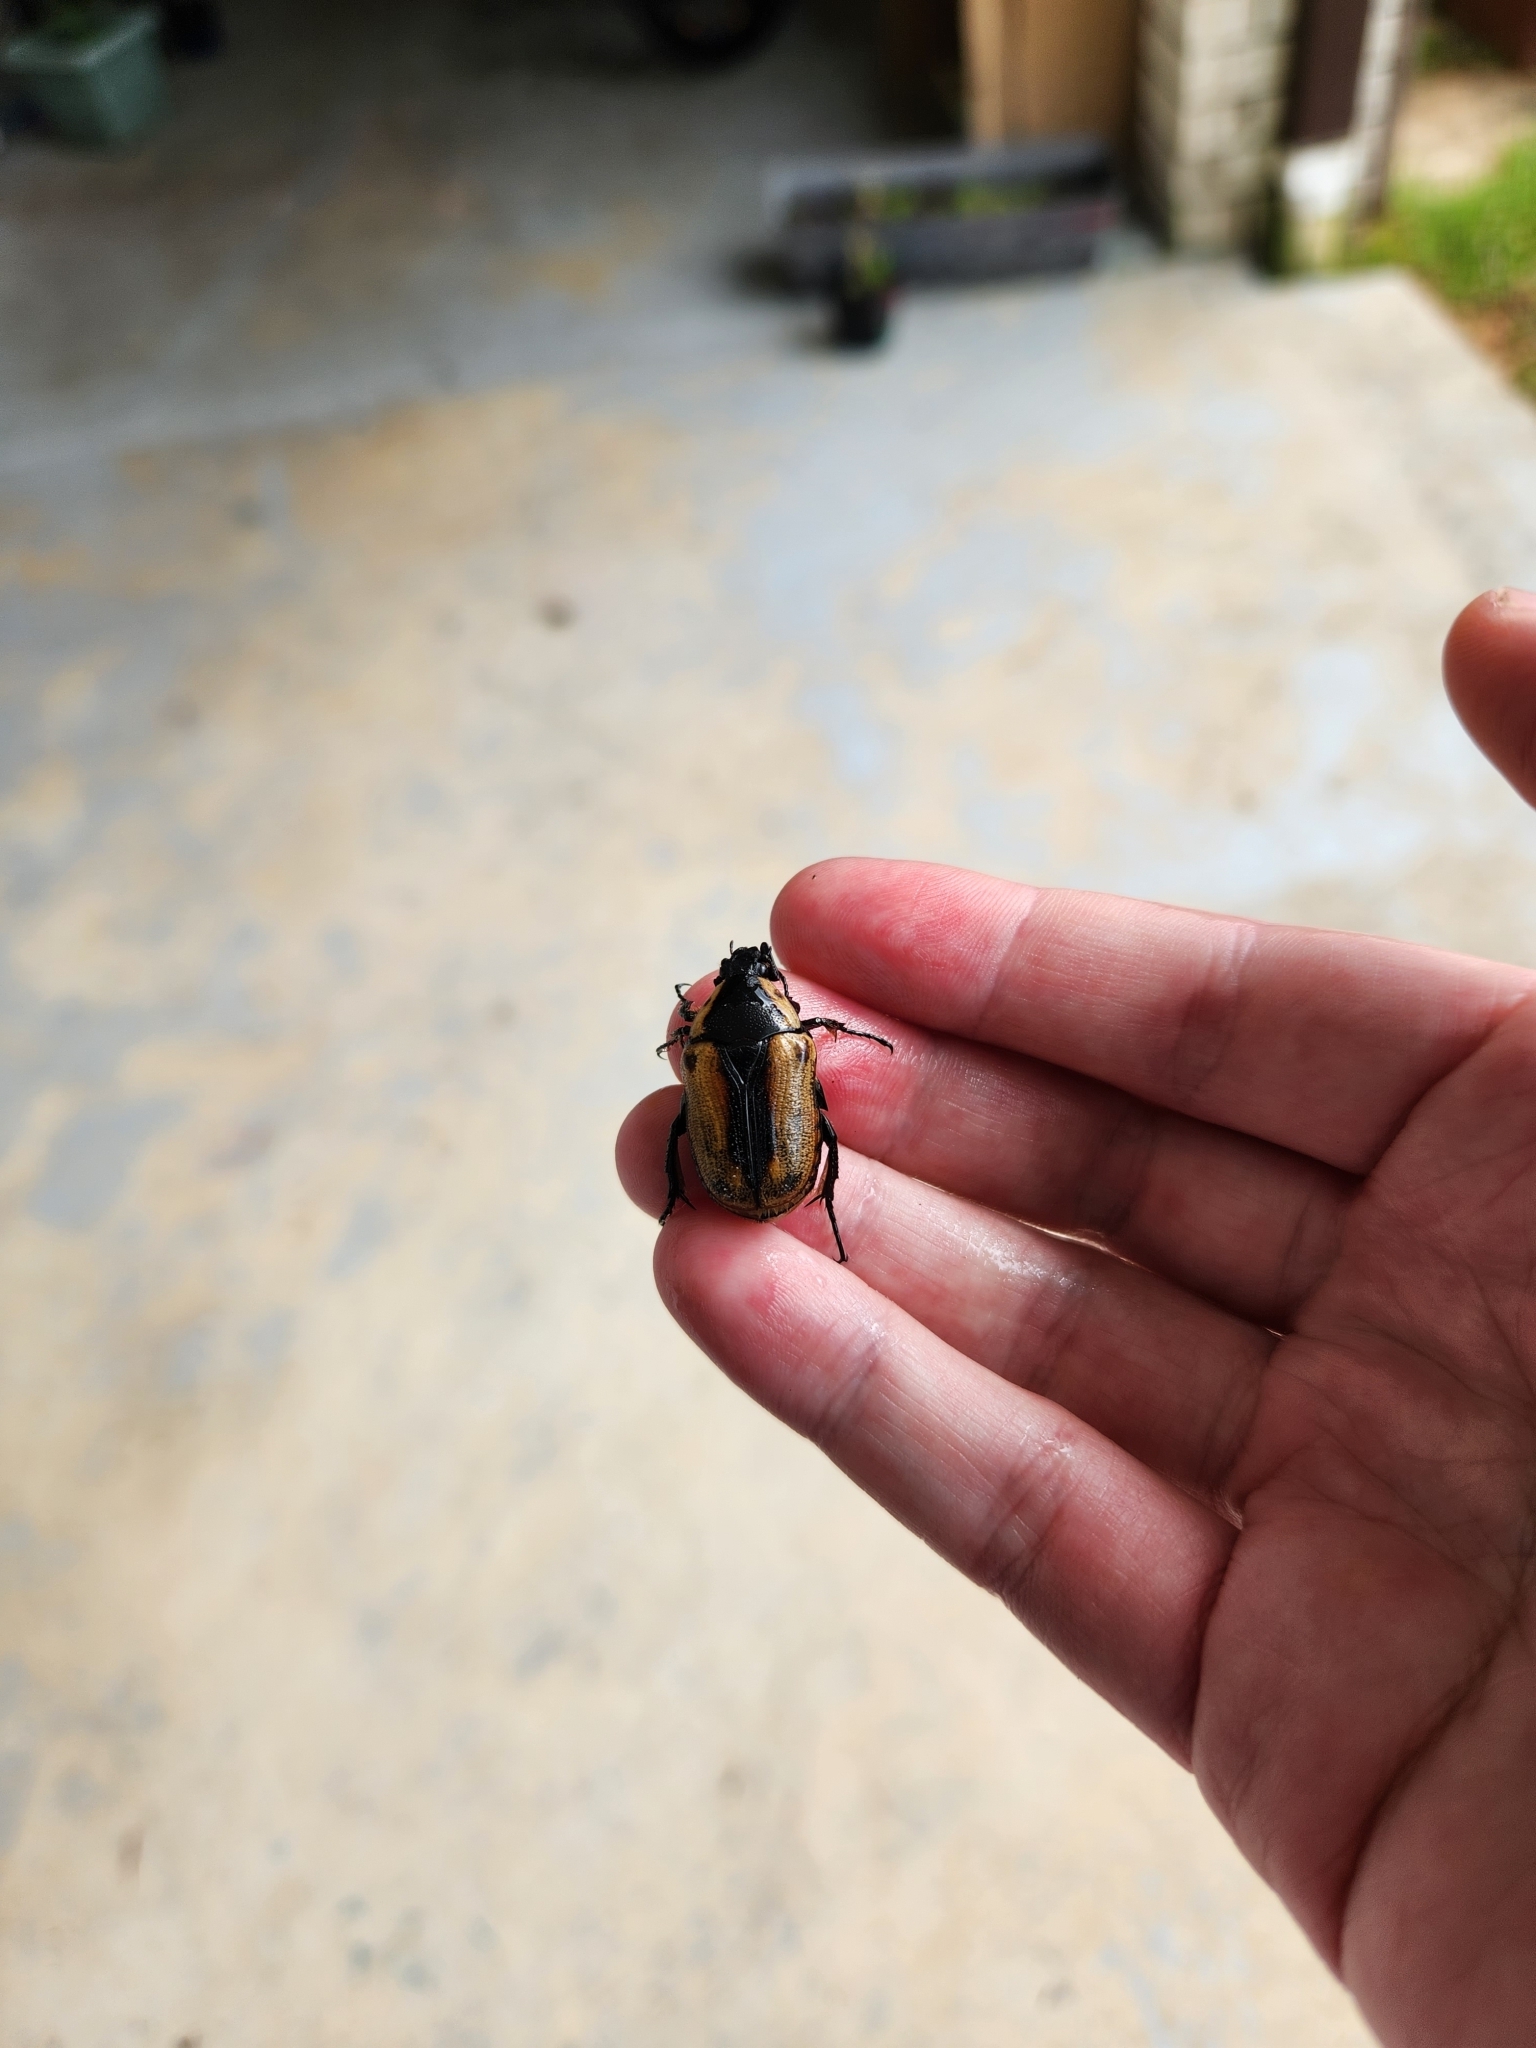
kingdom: Animalia
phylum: Arthropoda
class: Insecta
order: Coleoptera
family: Scarabaeidae
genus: Chondropyga
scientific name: Chondropyga dorsalis
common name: Cowboy beetle
